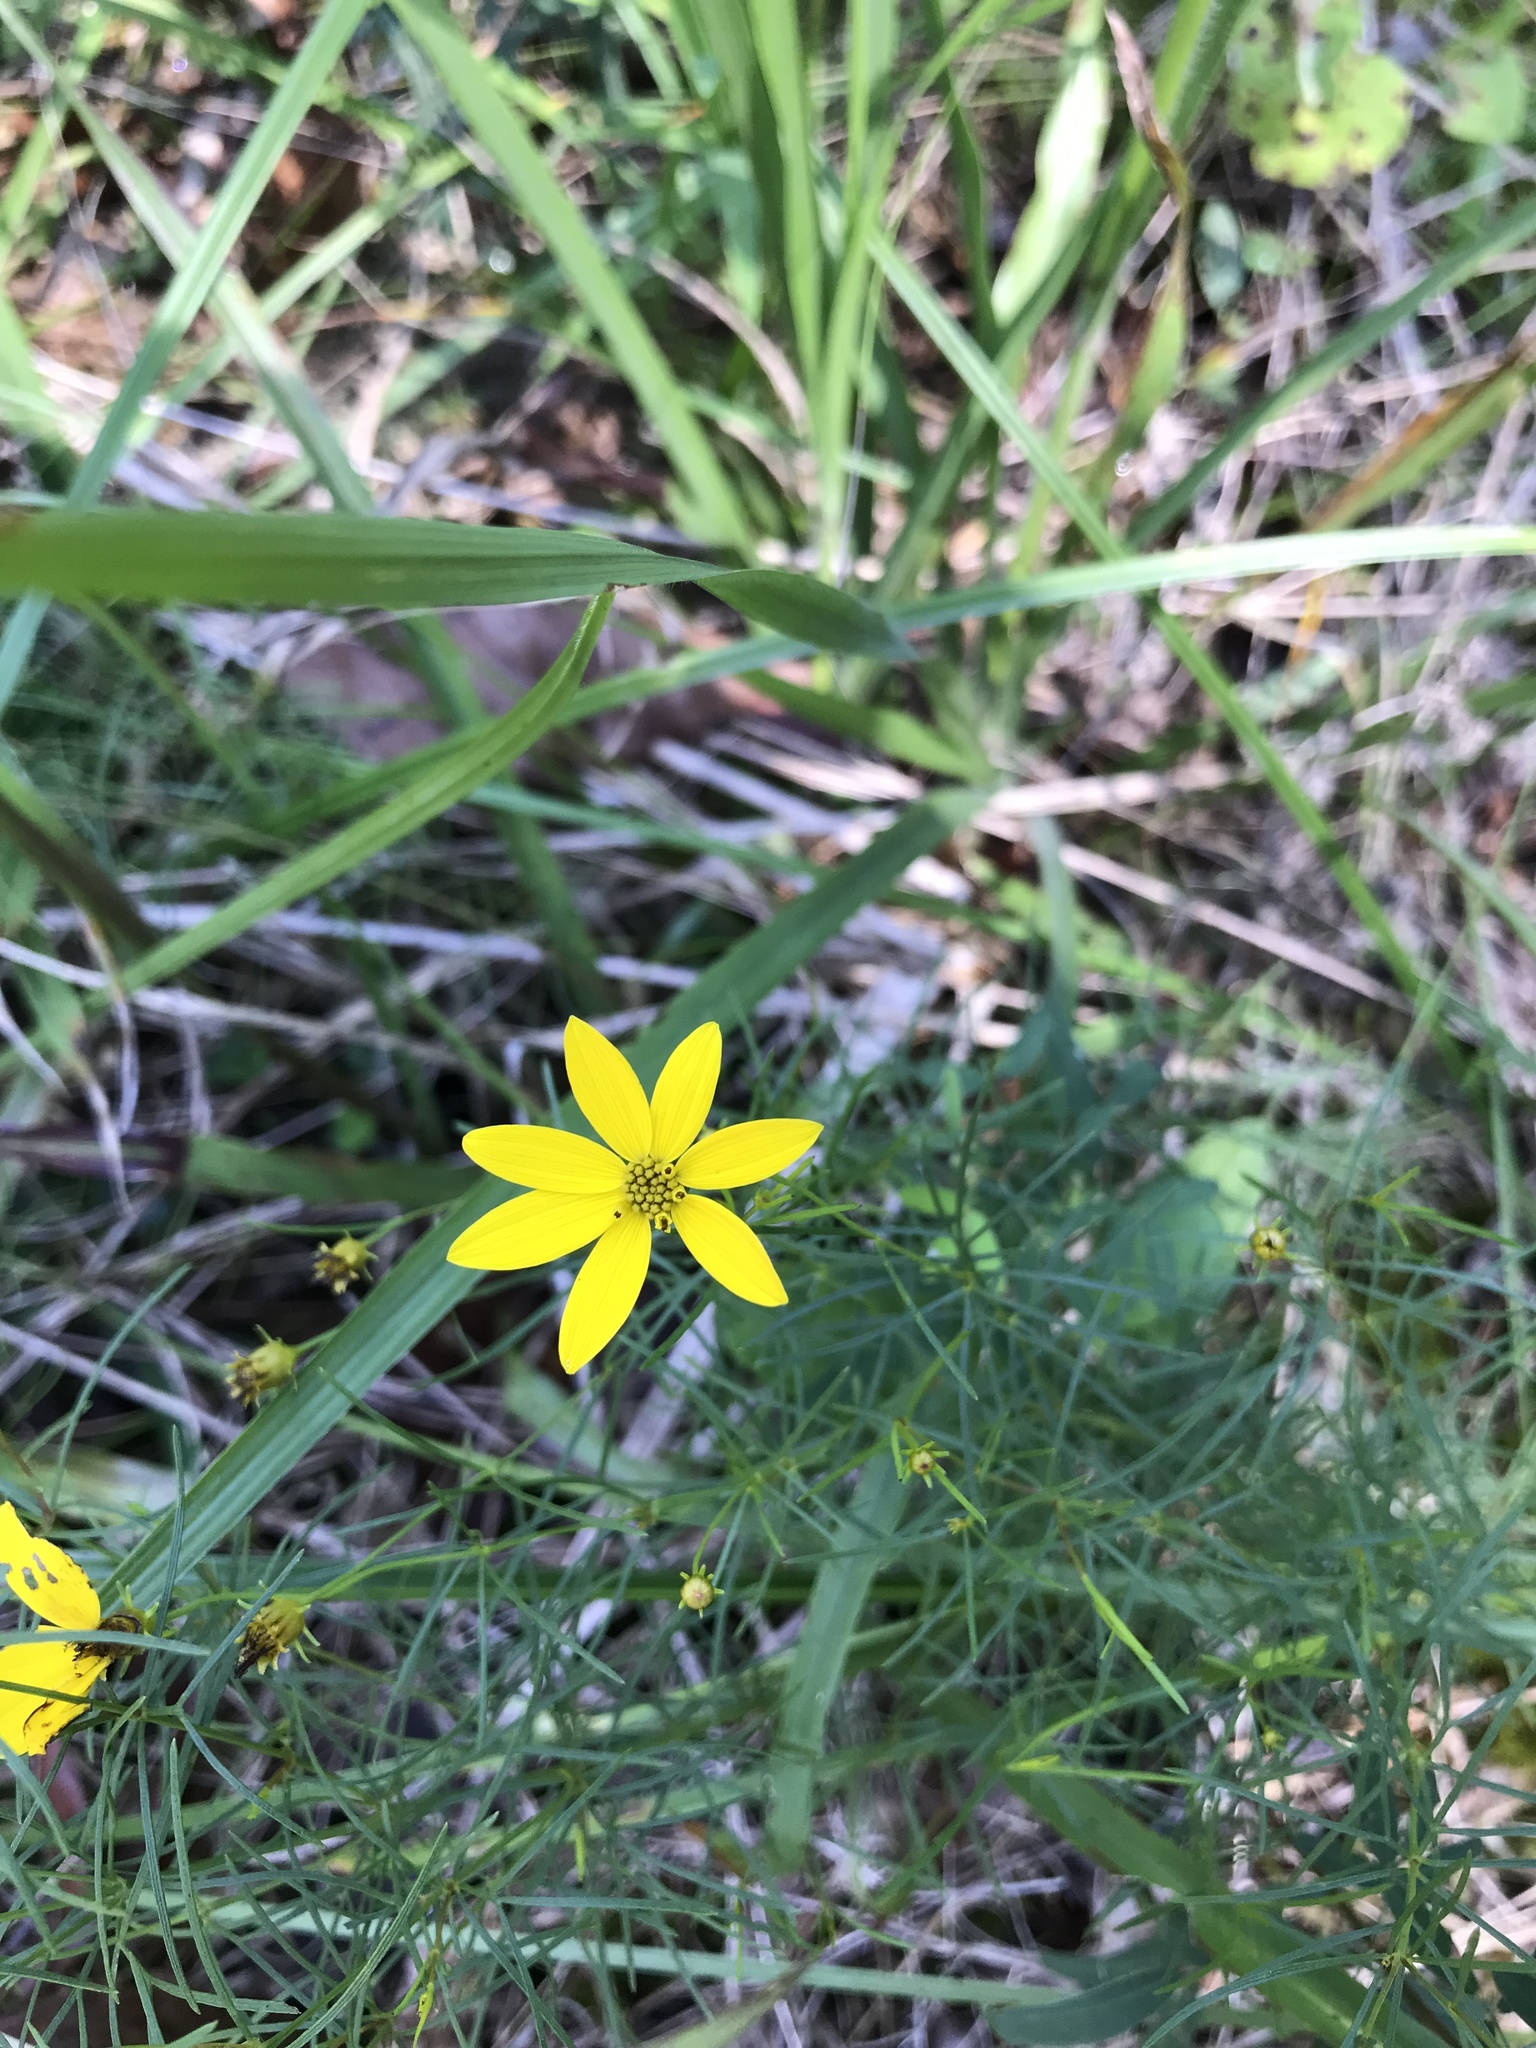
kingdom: Plantae
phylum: Tracheophyta
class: Magnoliopsida
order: Asterales
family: Asteraceae
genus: Coreopsis
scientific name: Coreopsis verticillata
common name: Whorled tickseed
